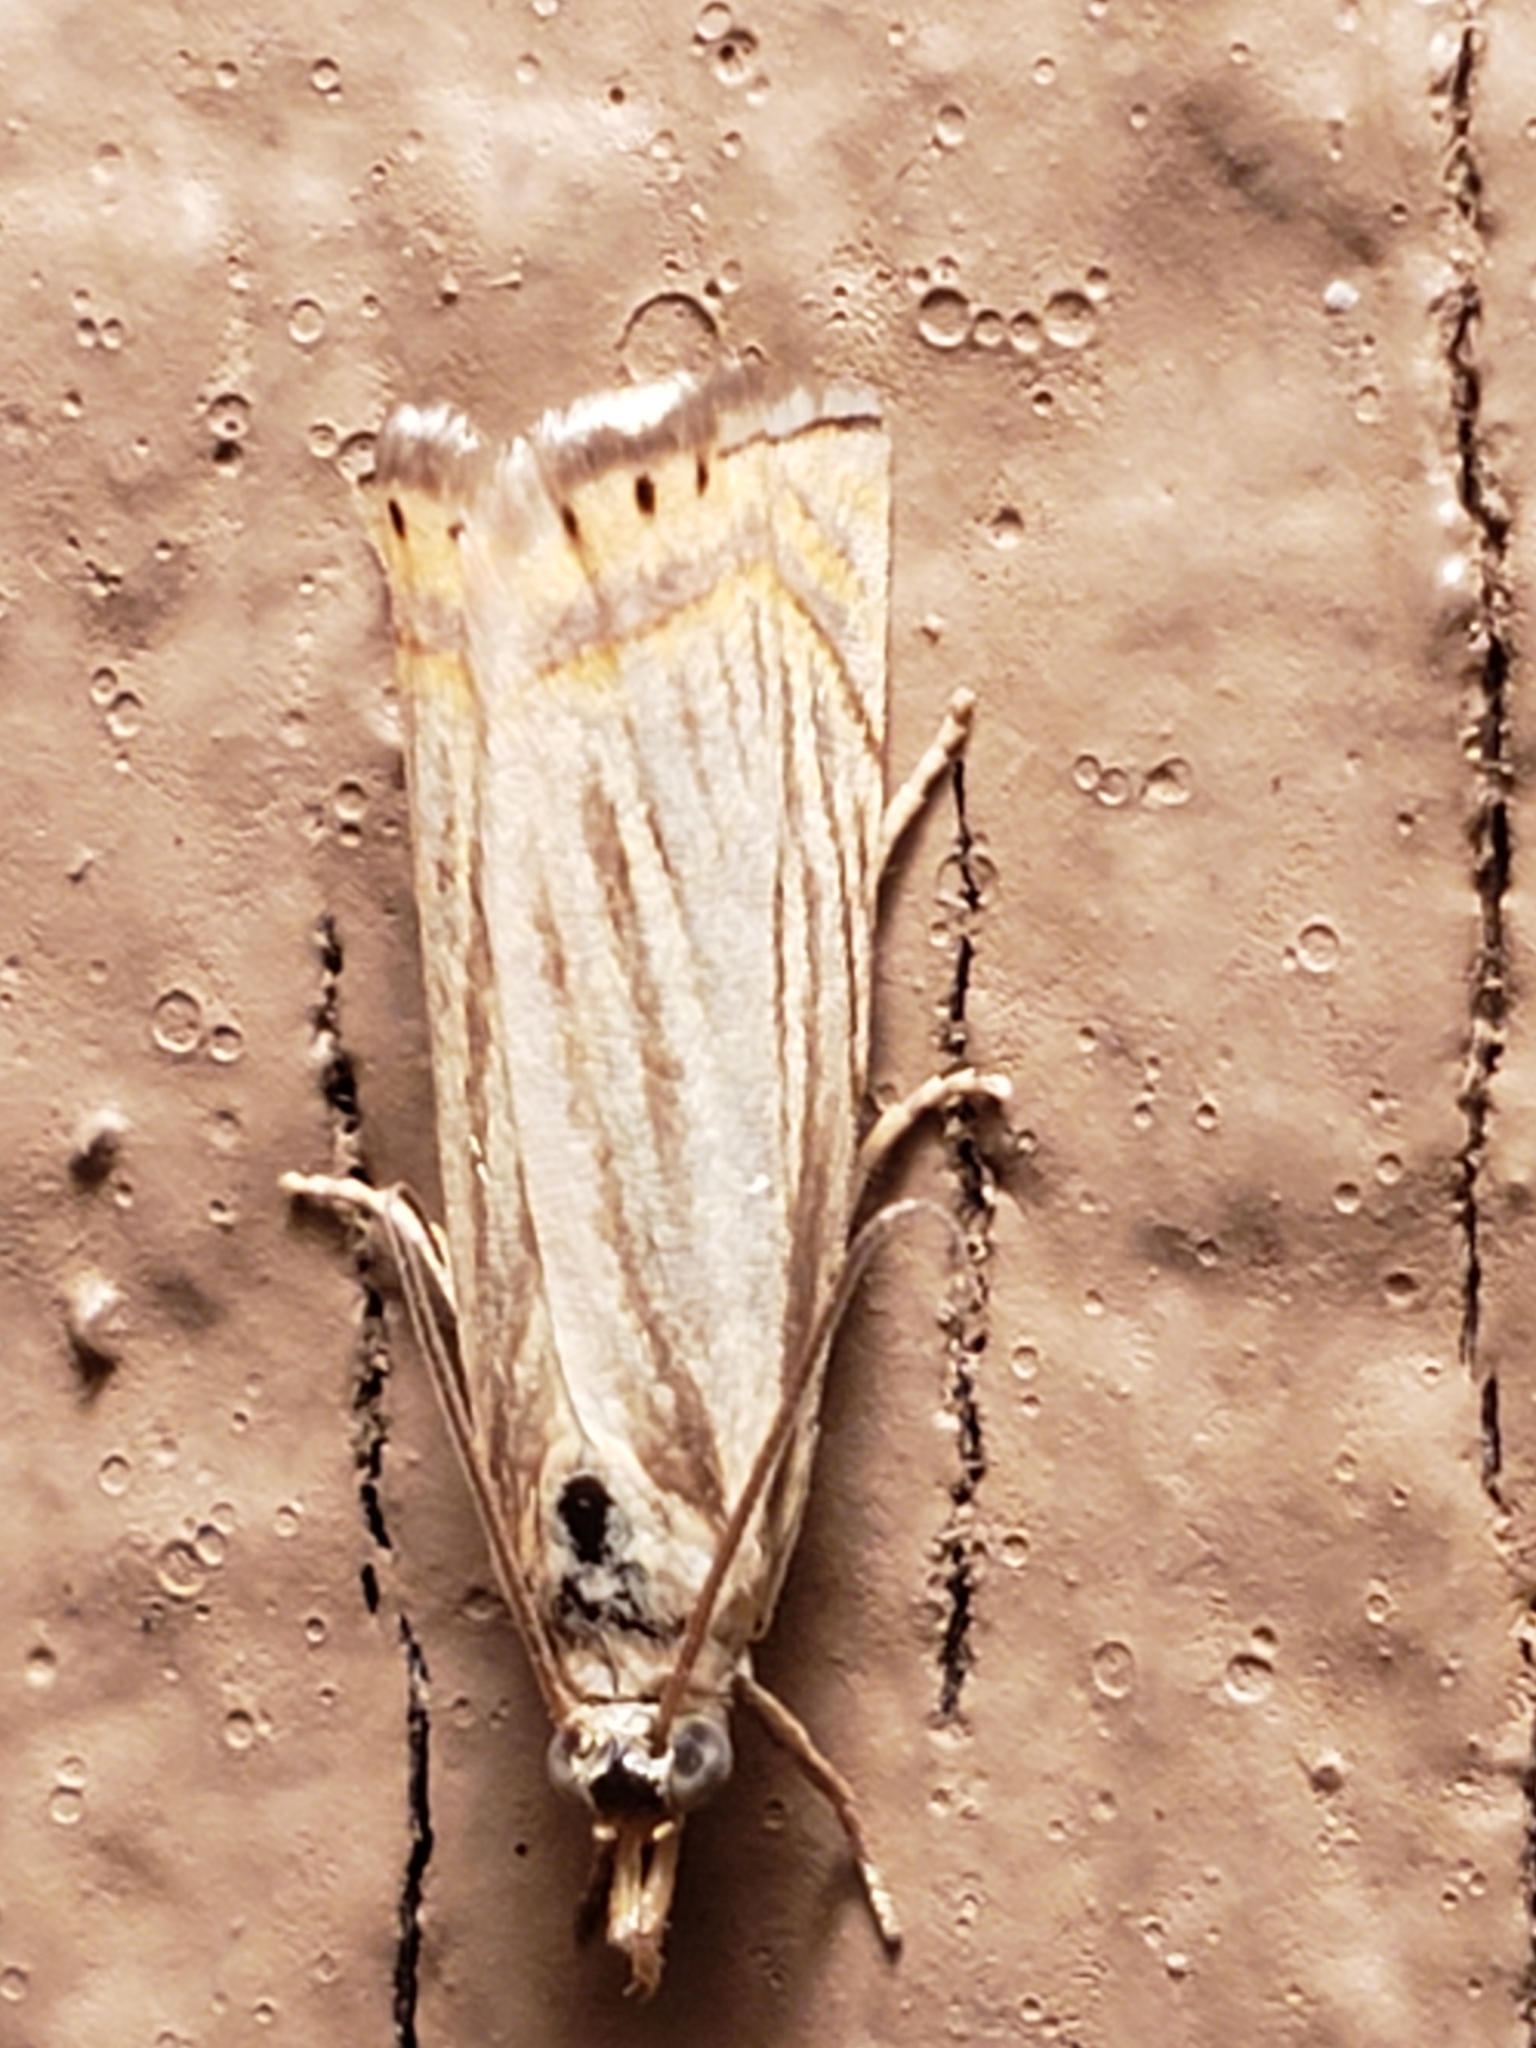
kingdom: Animalia
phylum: Arthropoda
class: Insecta
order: Lepidoptera
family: Crambidae
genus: Chrysoteuchia
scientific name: Chrysoteuchia topiarius
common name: Topiary grass-veneer
